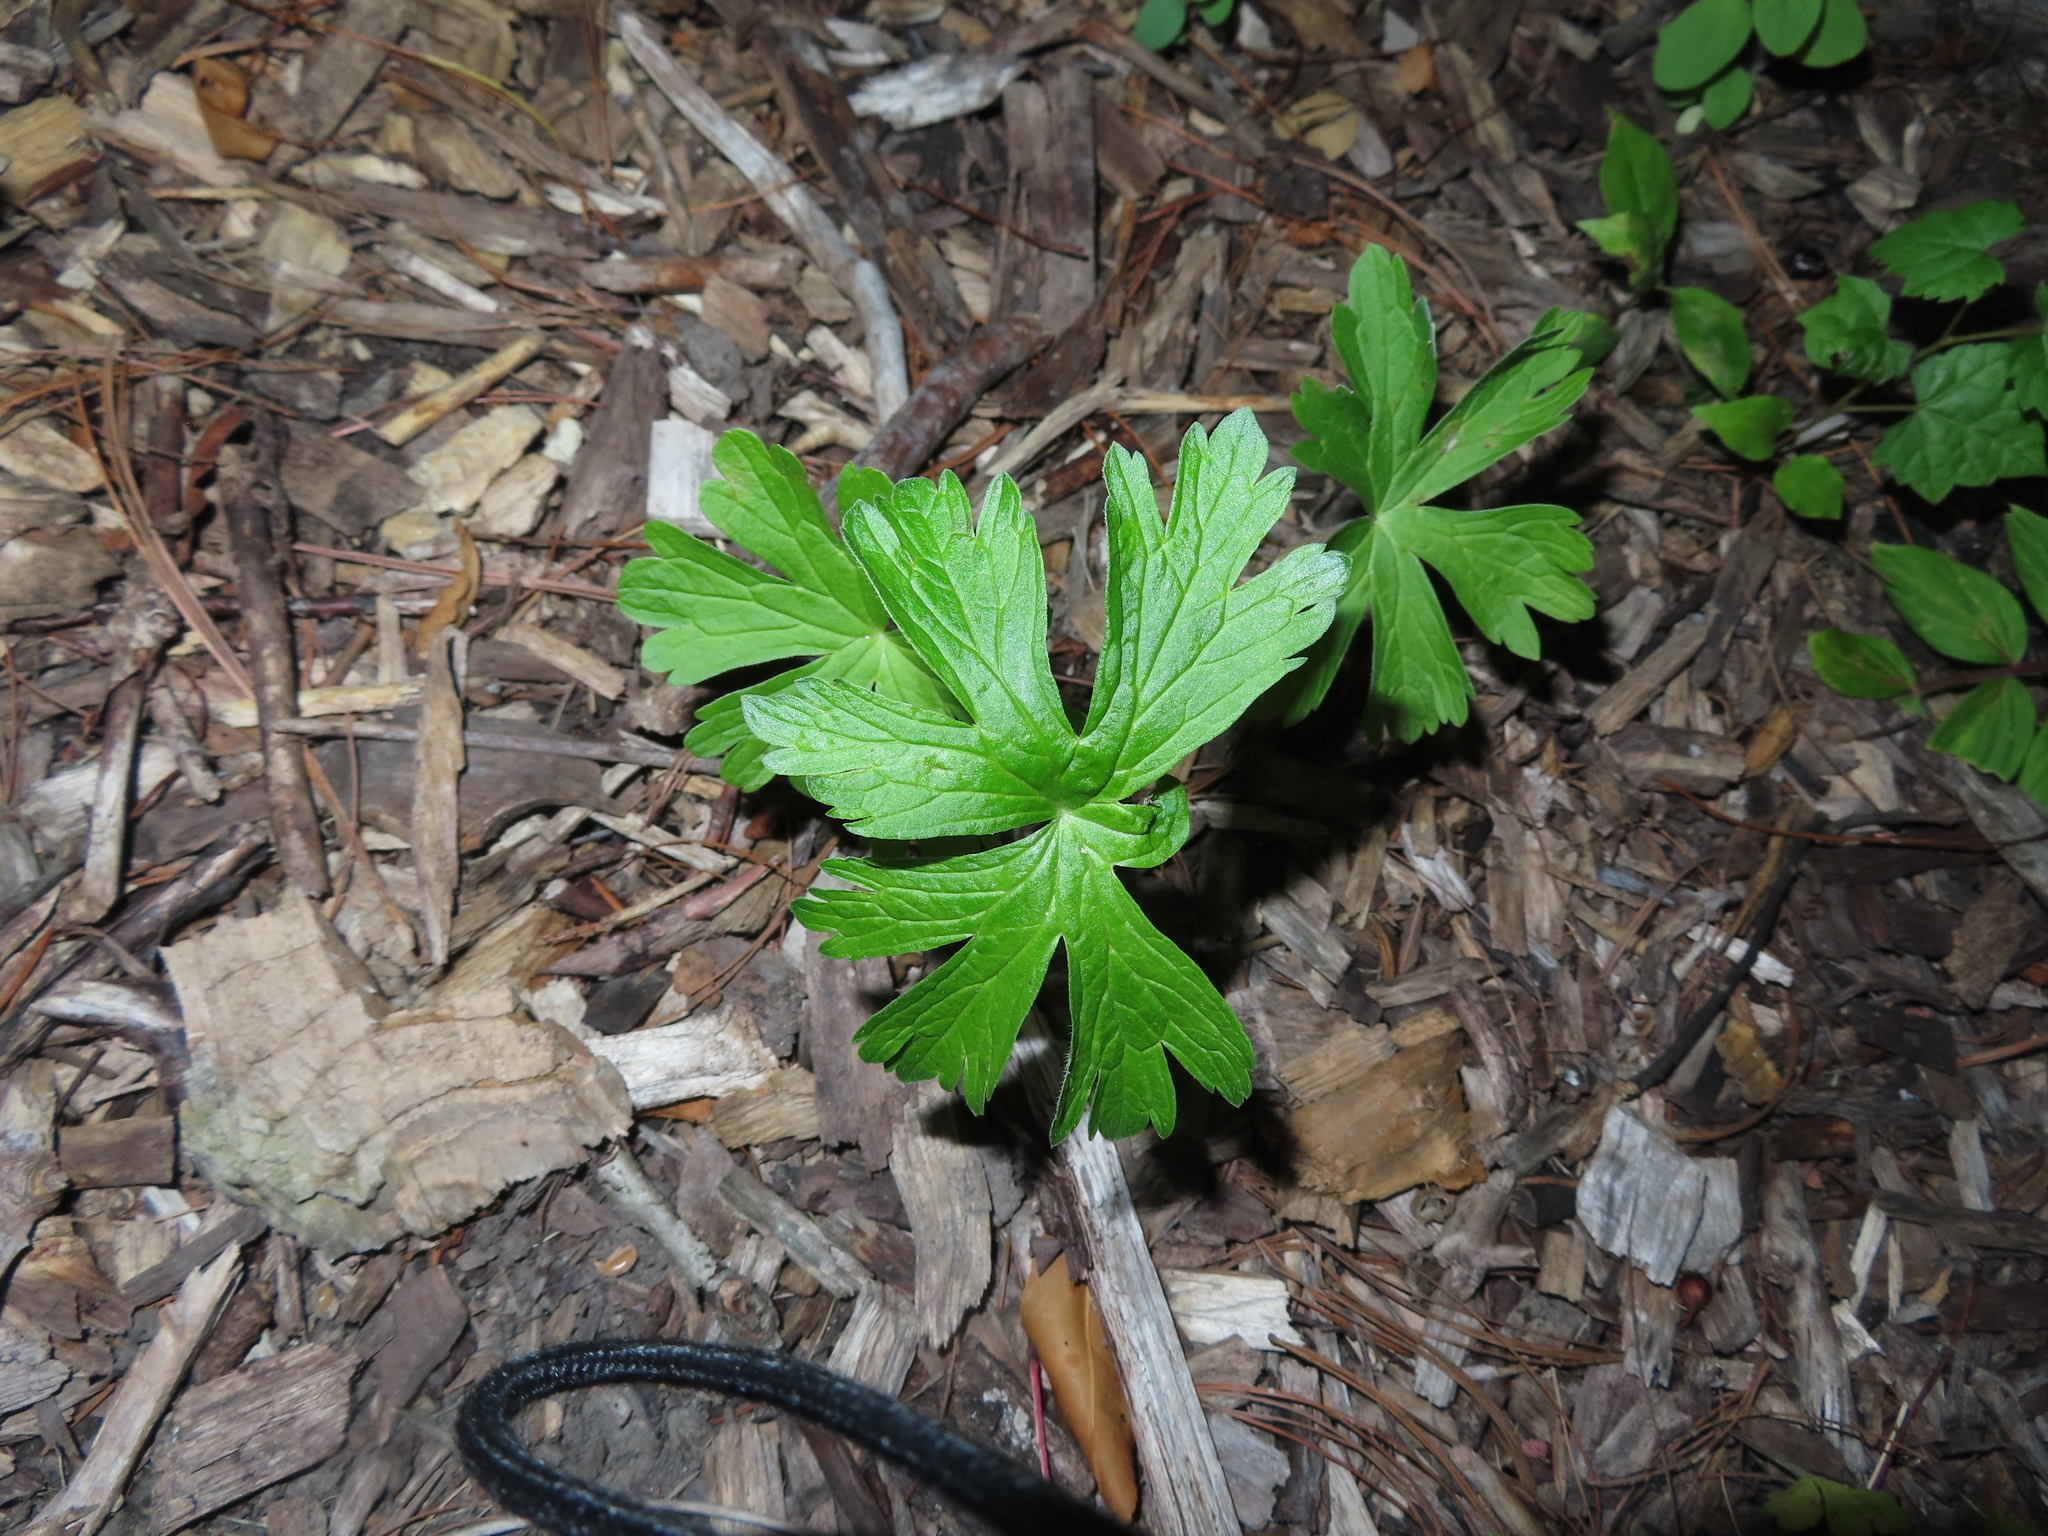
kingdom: Plantae
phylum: Tracheophyta
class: Magnoliopsida
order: Geraniales
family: Geraniaceae
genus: Geranium
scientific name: Geranium maculatum
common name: Spotted geranium
